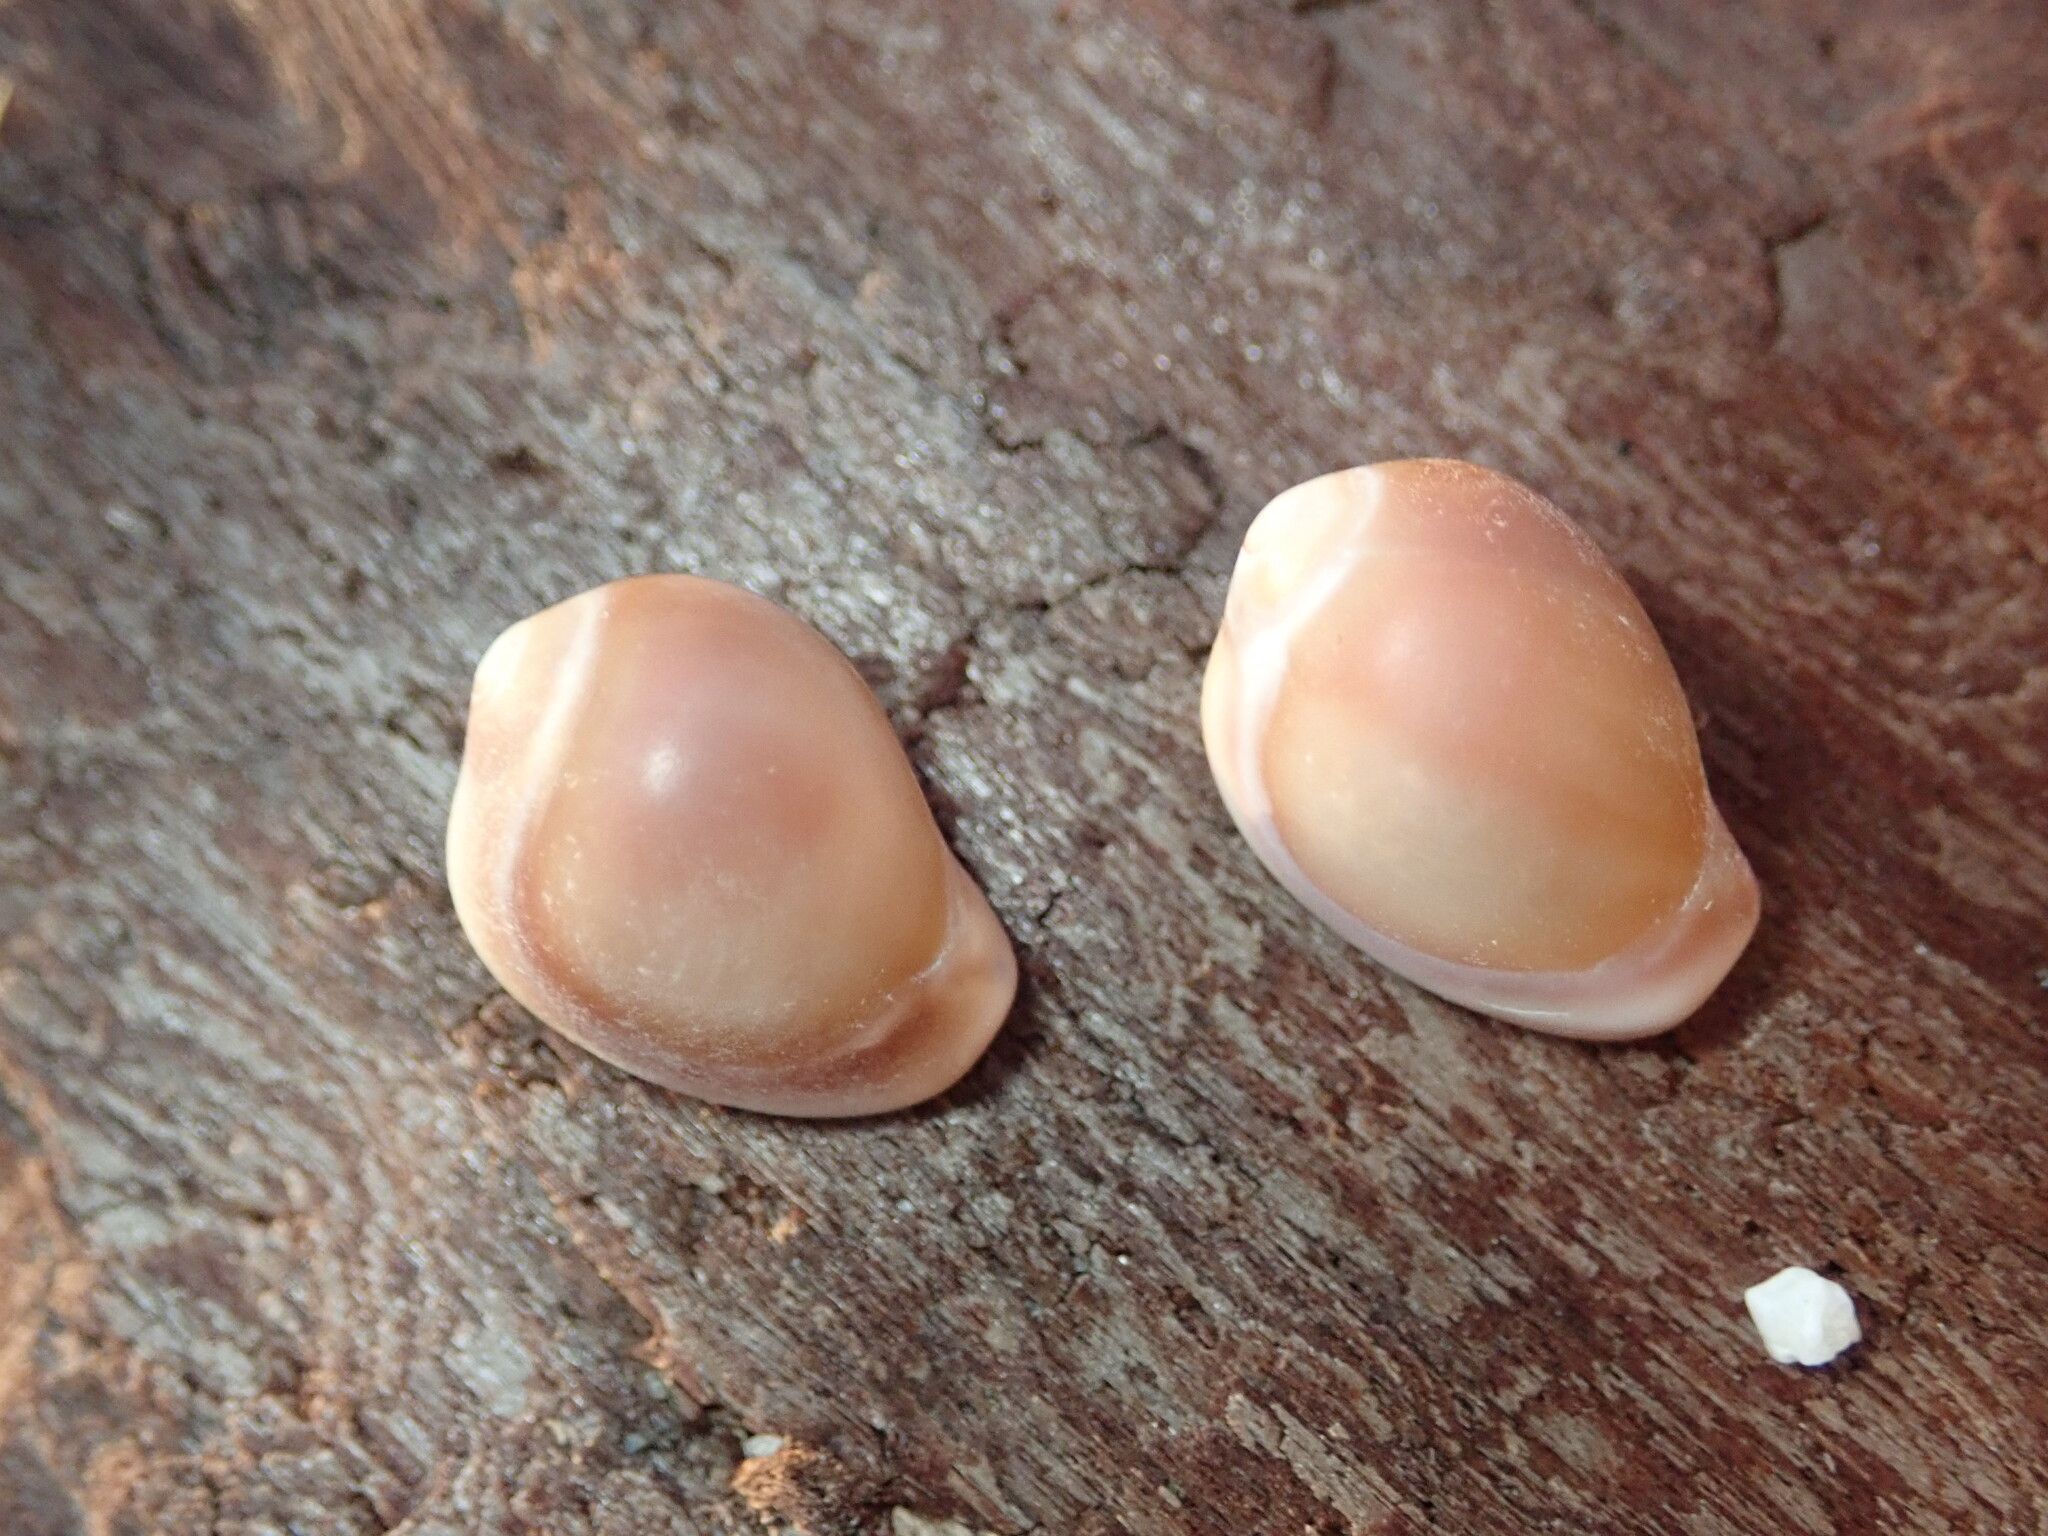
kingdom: Animalia
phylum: Mollusca
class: Gastropoda
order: Littorinimorpha
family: Eratoidae
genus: Hespererato
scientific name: Hespererato vitellina
